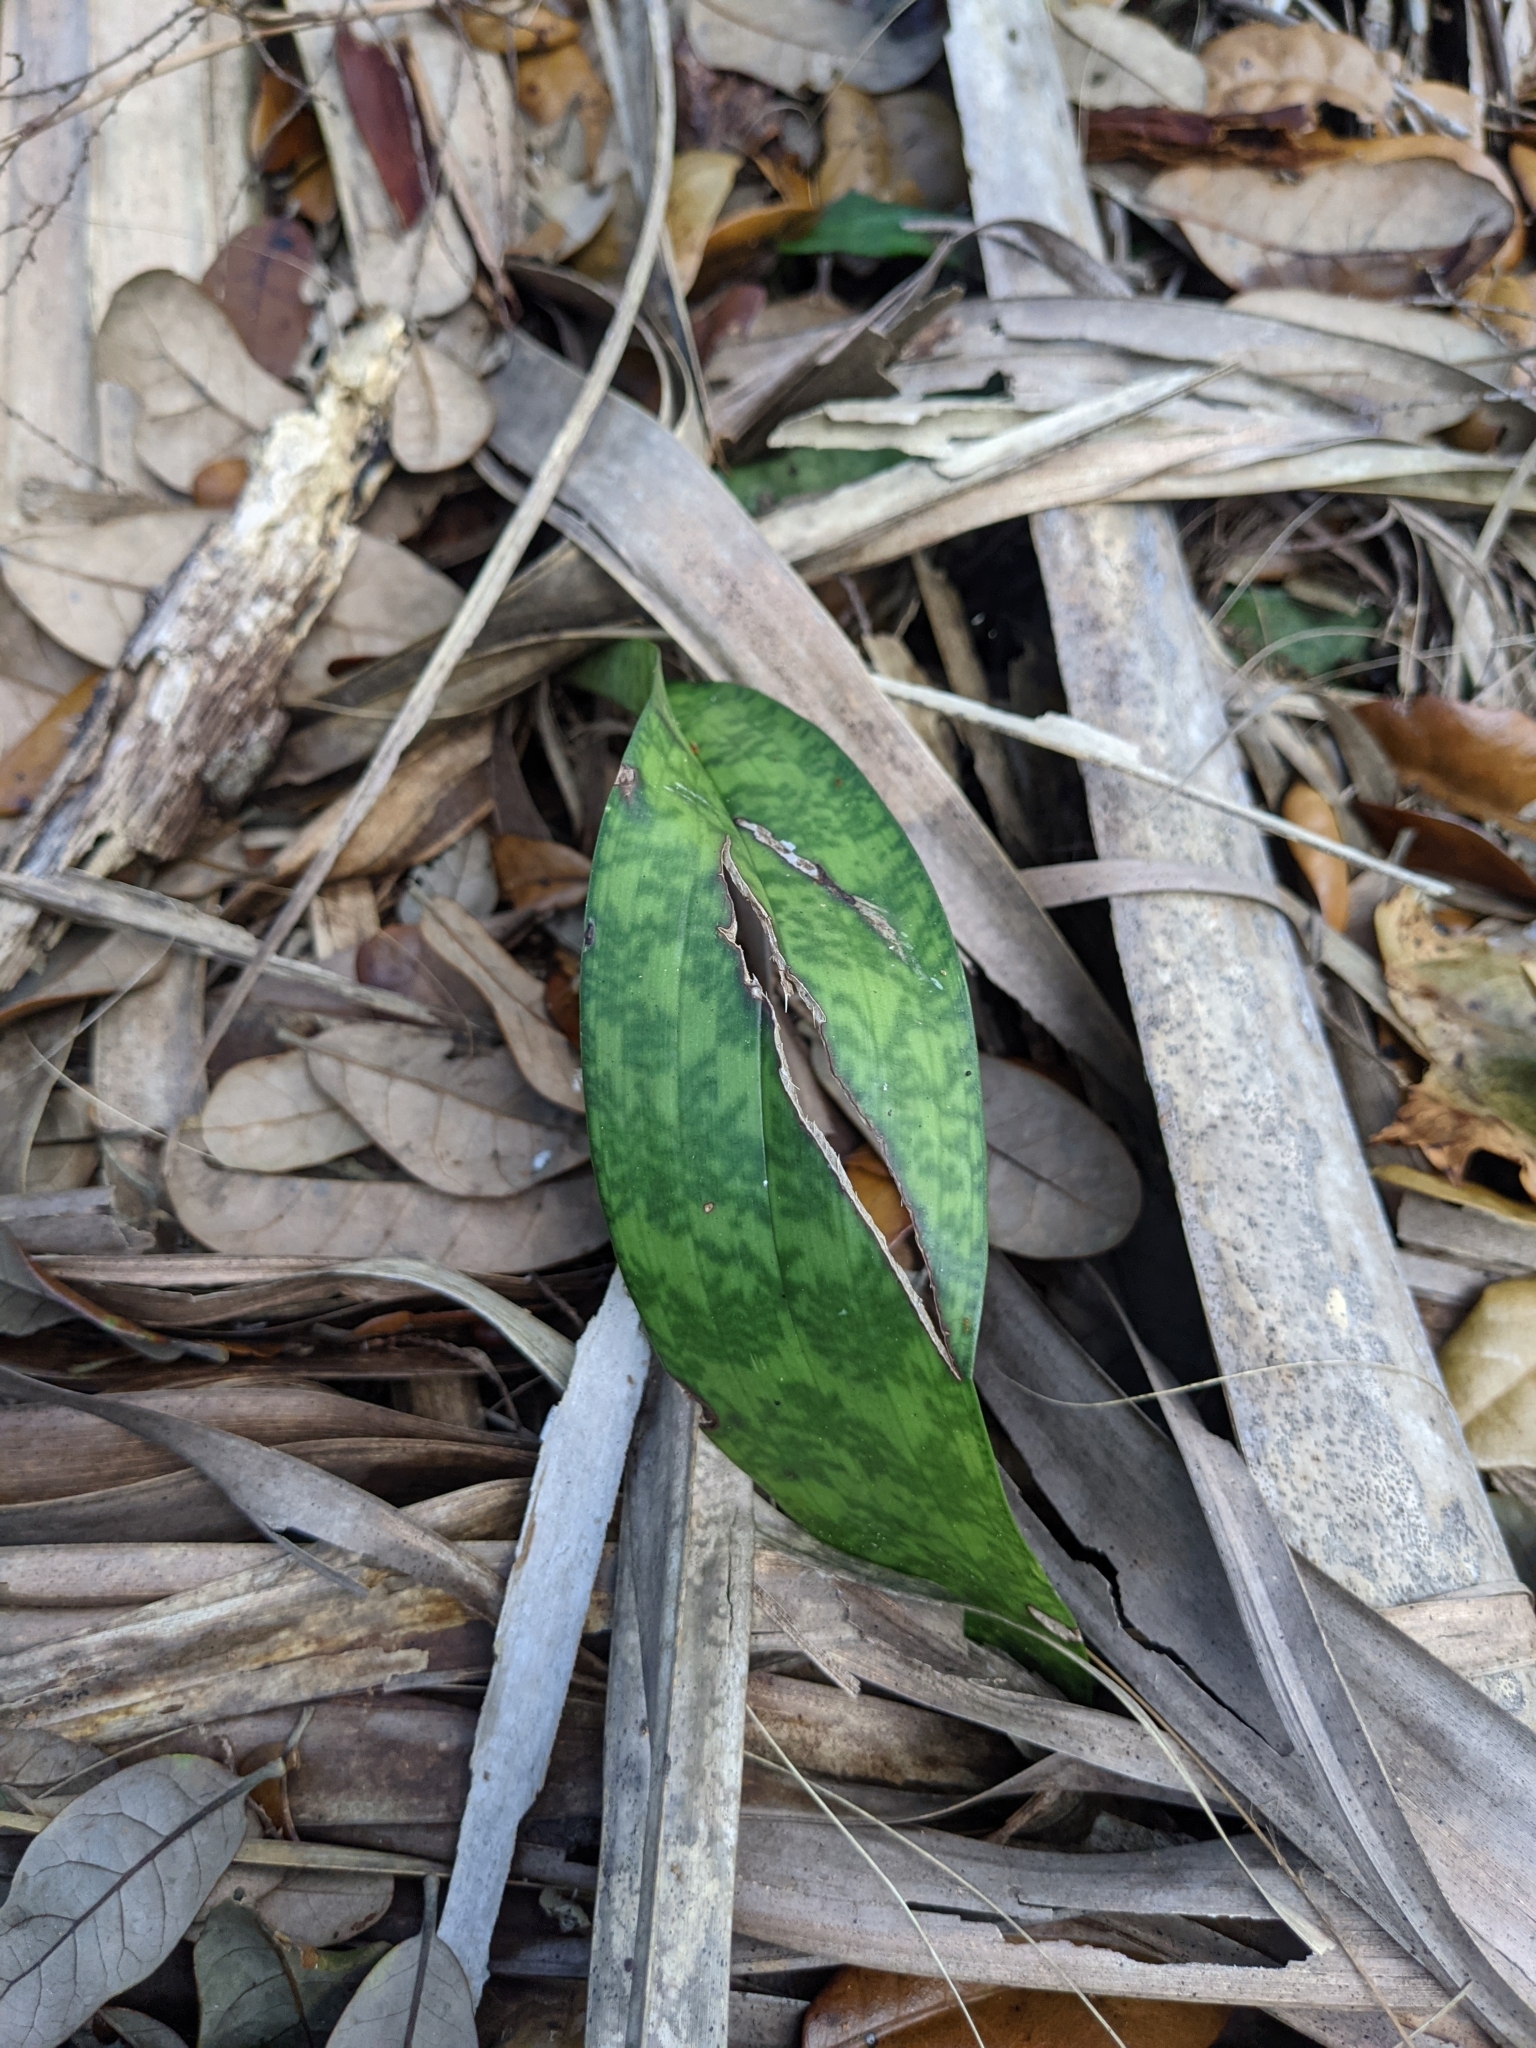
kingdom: Plantae
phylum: Tracheophyta
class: Liliopsida
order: Asparagales
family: Orchidaceae
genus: Eulophia
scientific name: Eulophia maculata
